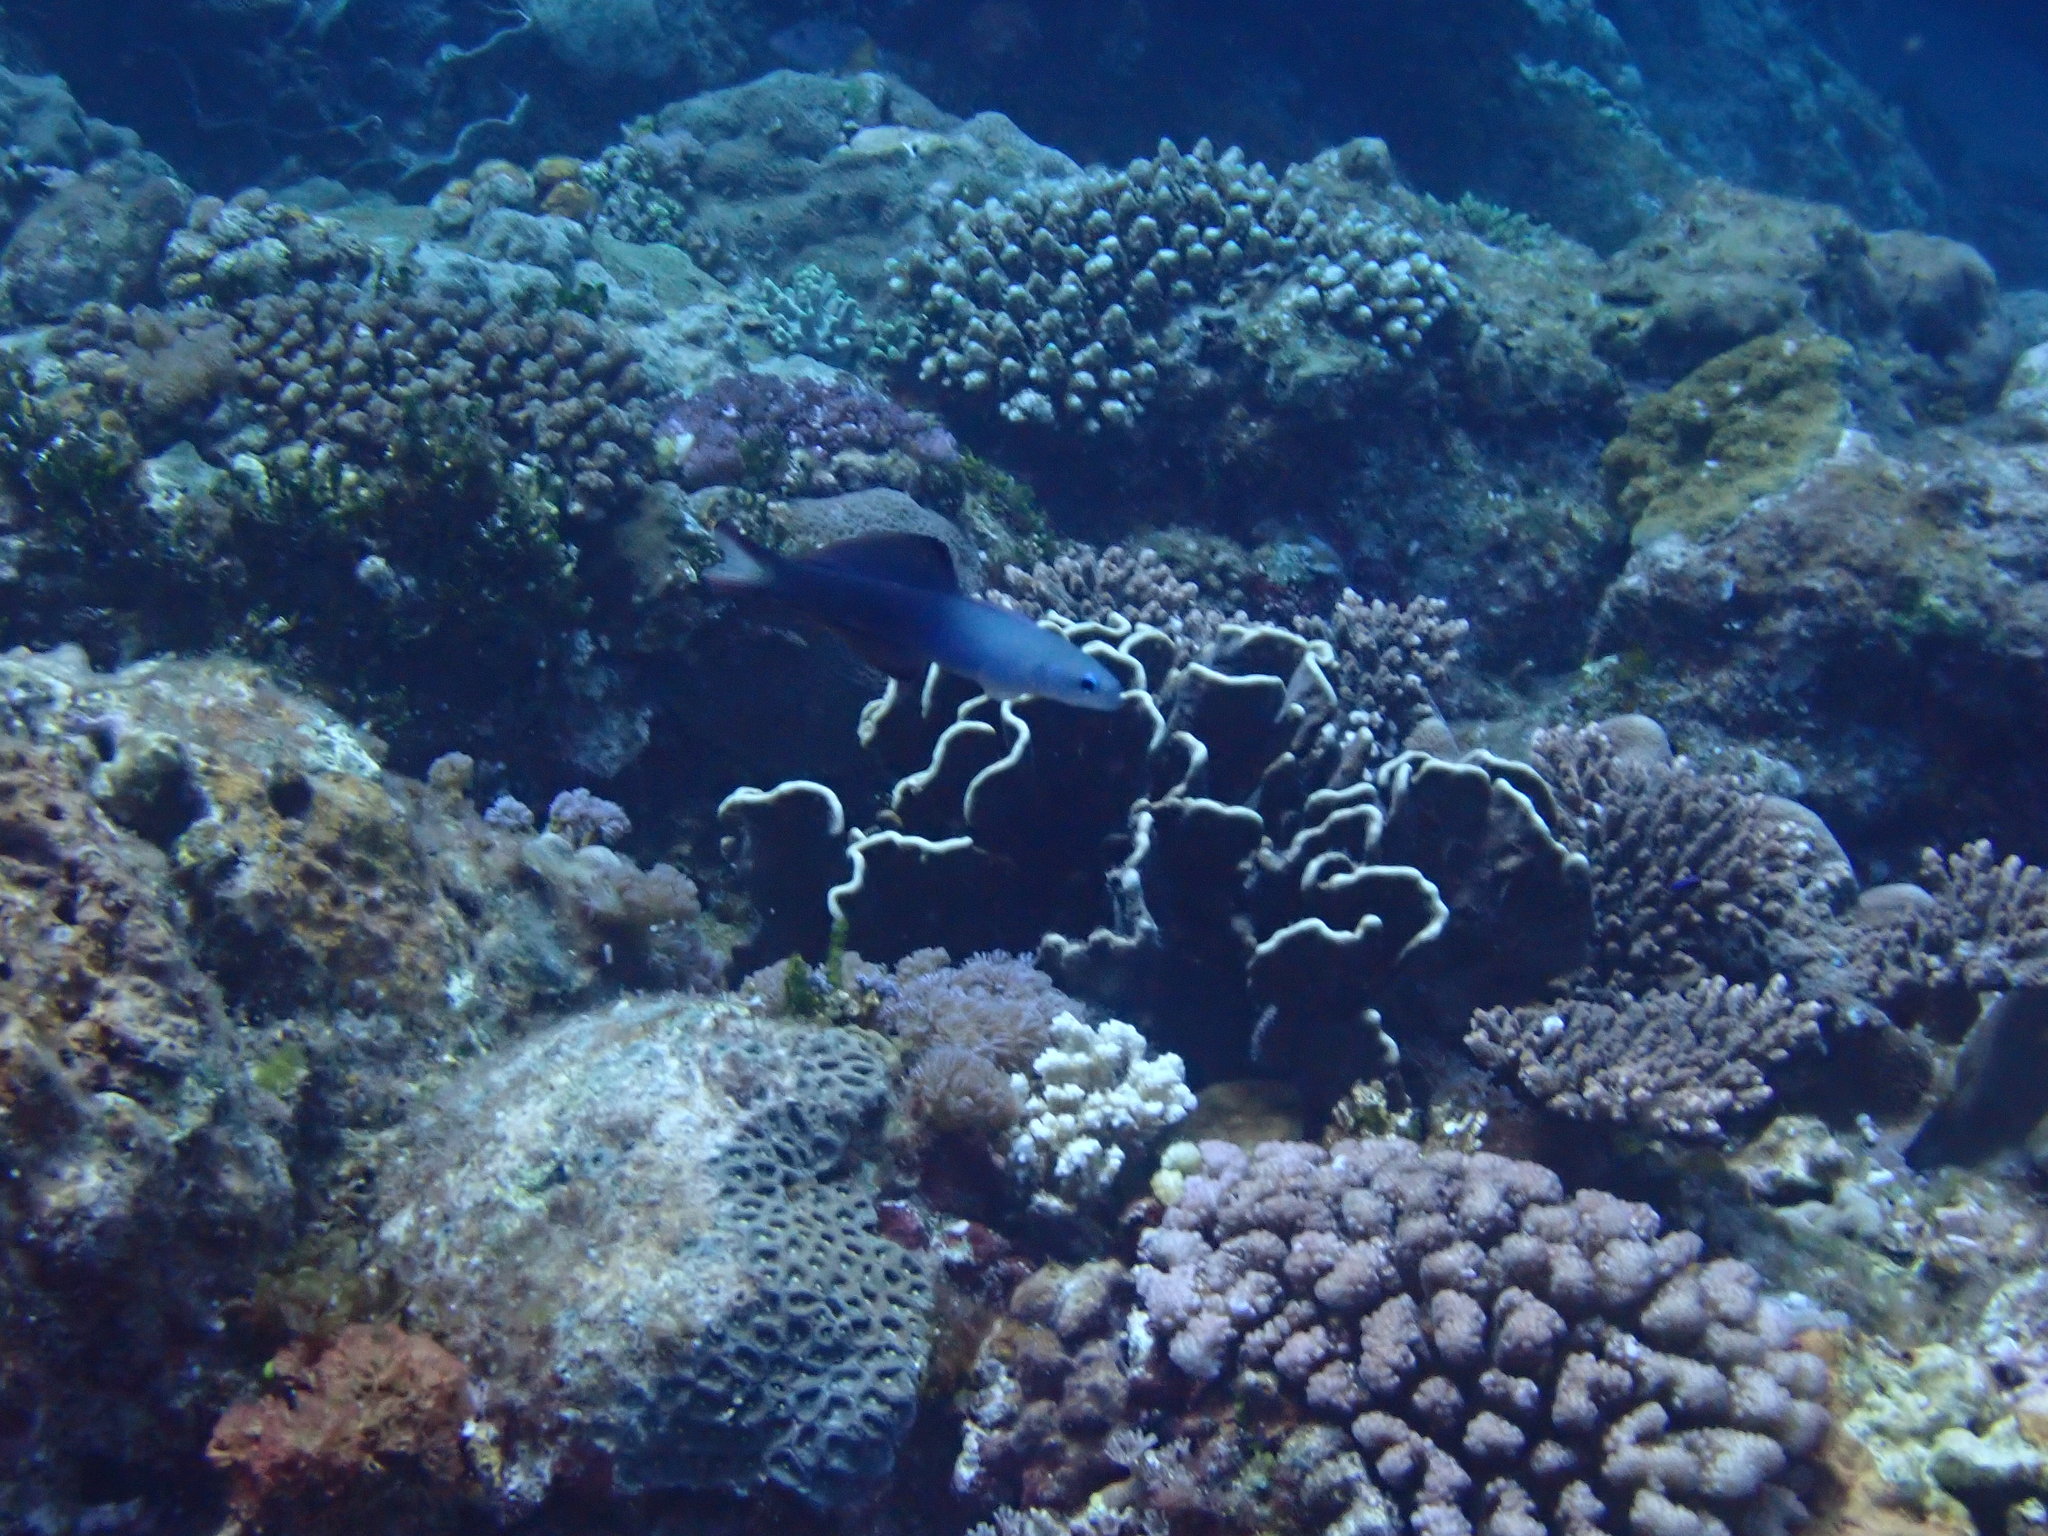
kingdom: Animalia
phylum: Chordata
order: Perciformes
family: Microdesmidae
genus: Ptereleotris
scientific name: Ptereleotris evides
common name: Blackfin dartfish
